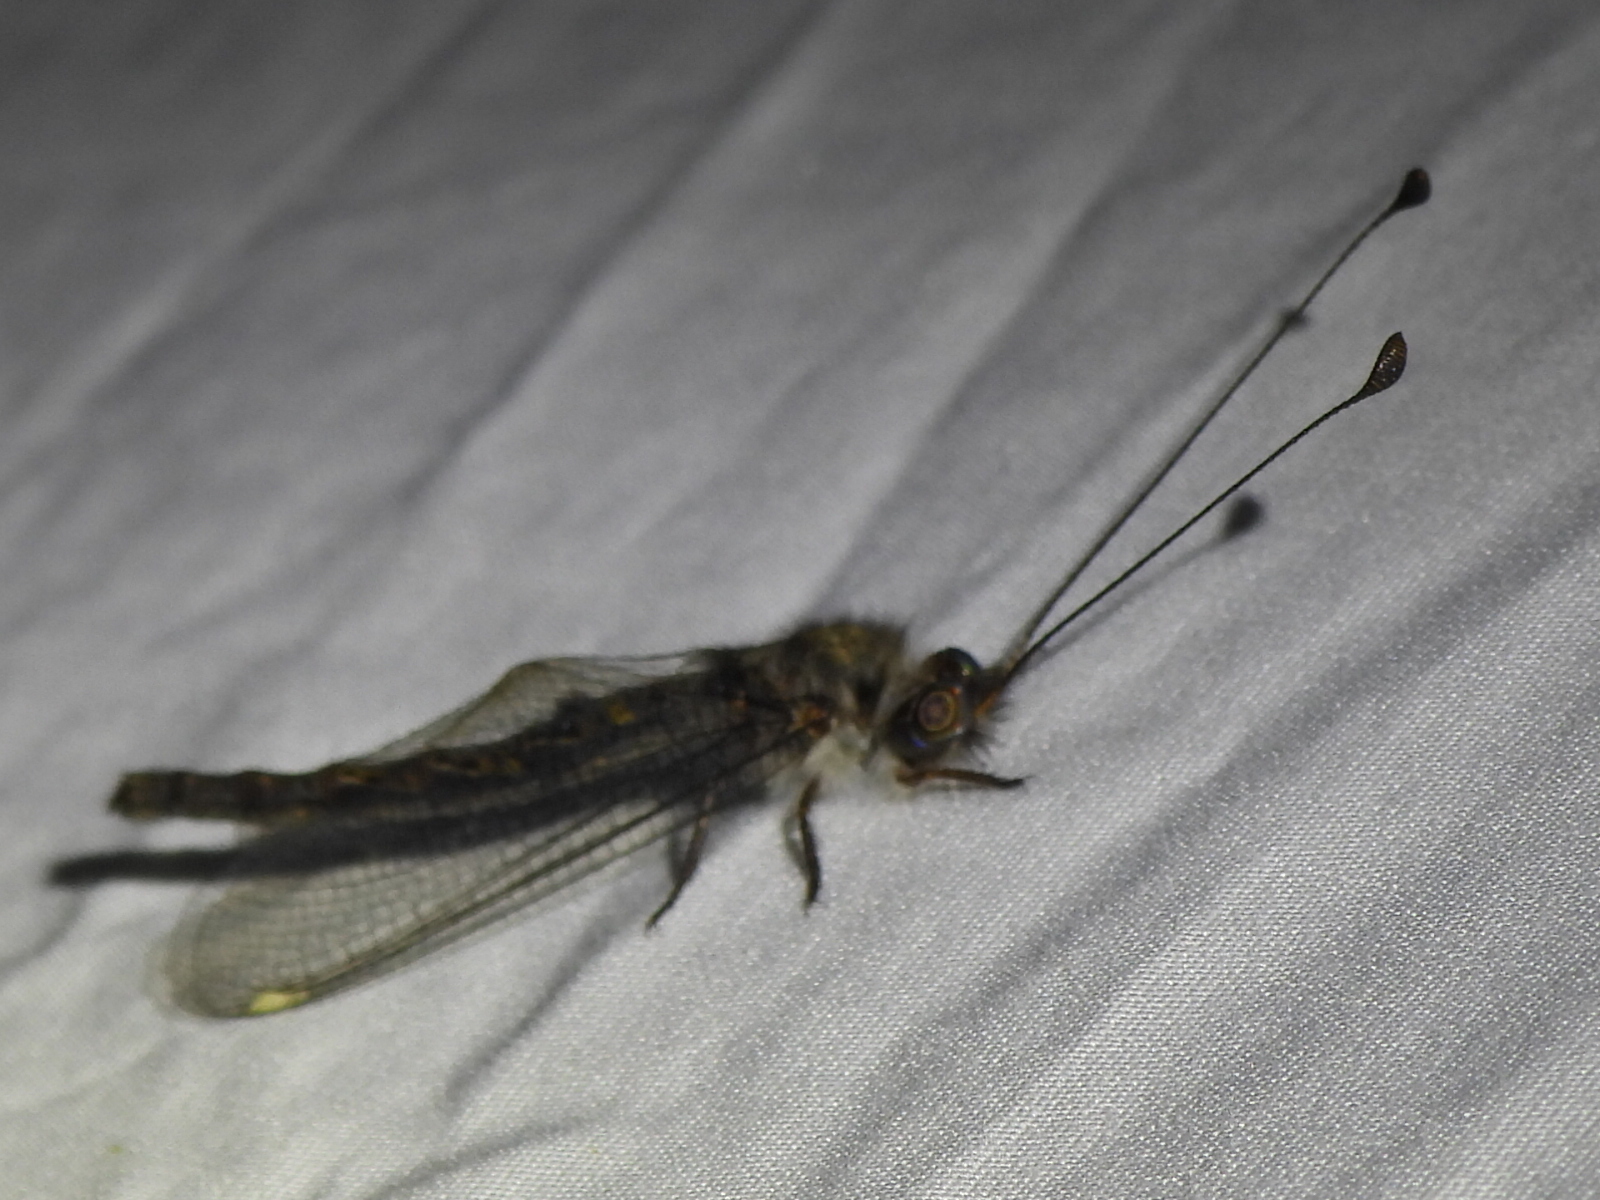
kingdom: Animalia
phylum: Arthropoda
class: Insecta
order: Neuroptera
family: Ascalaphidae
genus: Ululodes
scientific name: Ululodes quadripunctatus
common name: Four-spotted owlfly
